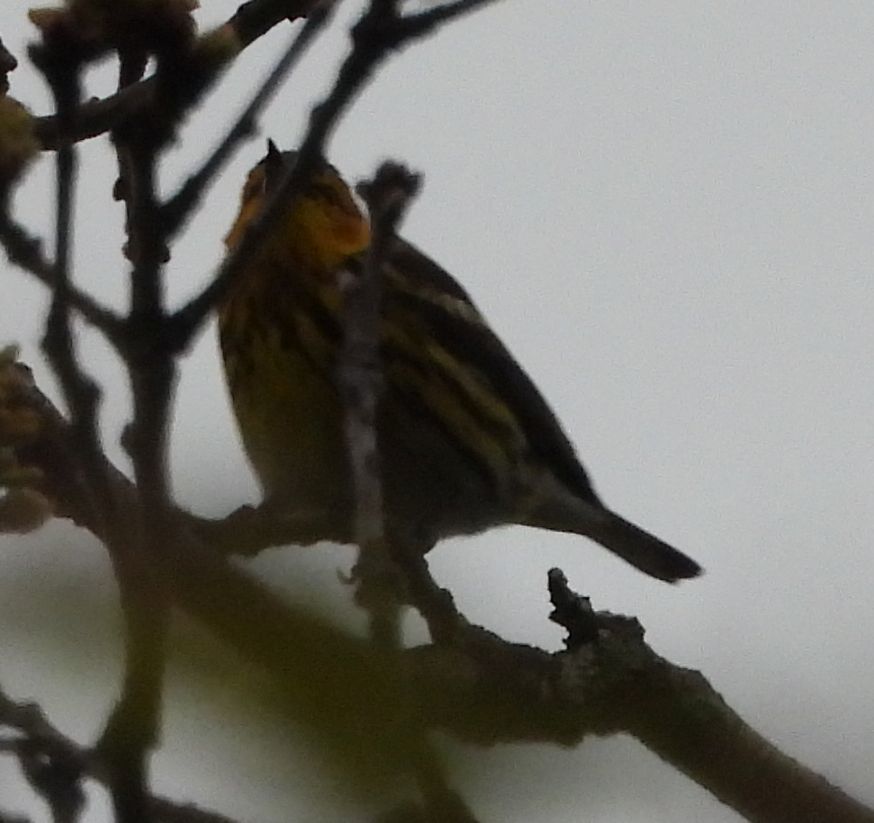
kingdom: Animalia
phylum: Chordata
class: Aves
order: Passeriformes
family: Parulidae
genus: Setophaga
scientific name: Setophaga tigrina
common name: Cape may warbler
